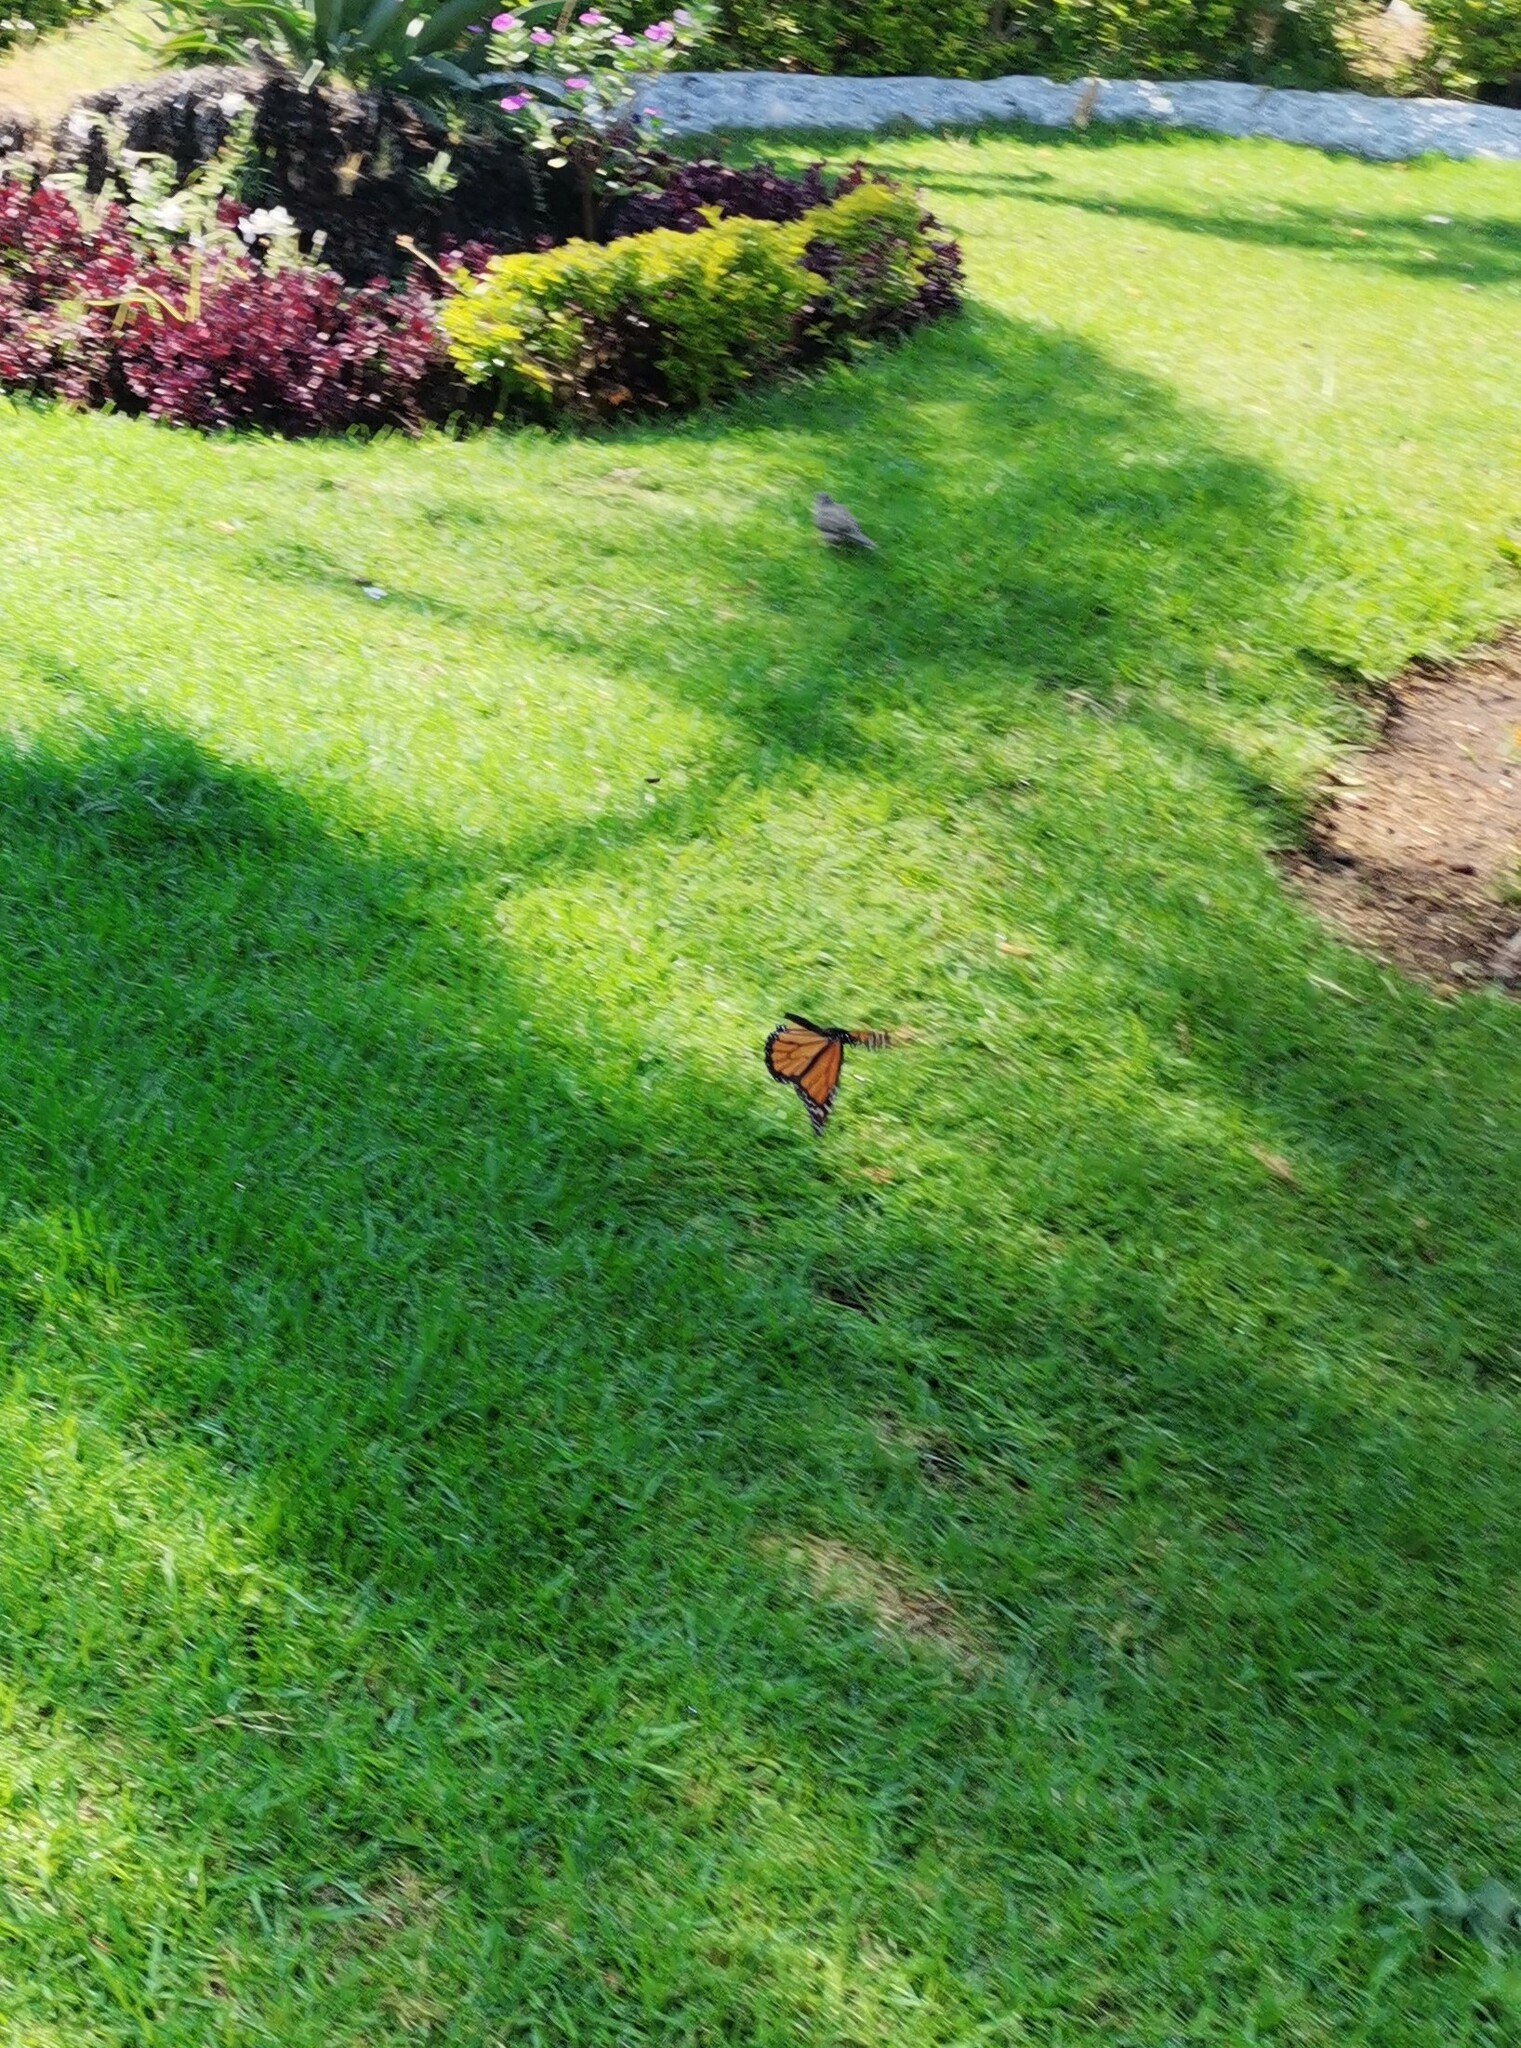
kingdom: Animalia
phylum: Arthropoda
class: Insecta
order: Lepidoptera
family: Nymphalidae
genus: Danaus
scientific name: Danaus plexippus
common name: Monarch
